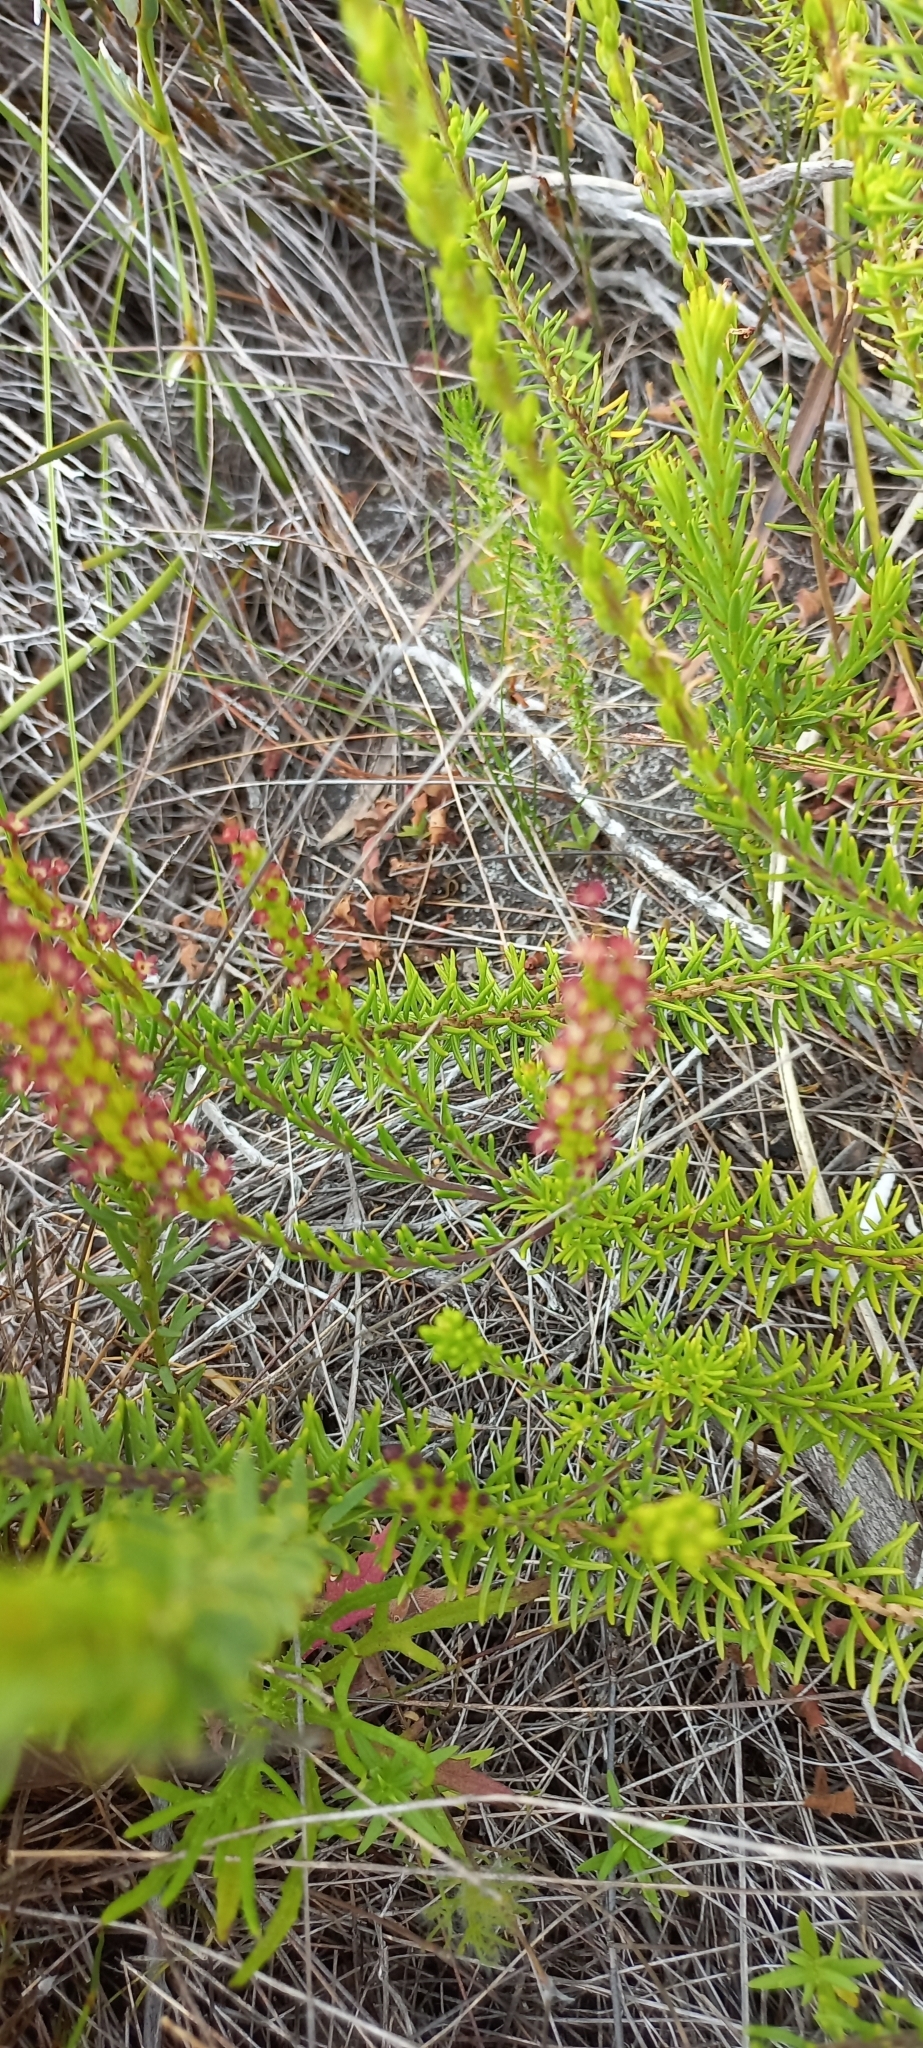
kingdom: Plantae
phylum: Tracheophyta
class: Magnoliopsida
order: Lamiales
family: Scrophulariaceae
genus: Microdon
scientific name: Microdon dubius
